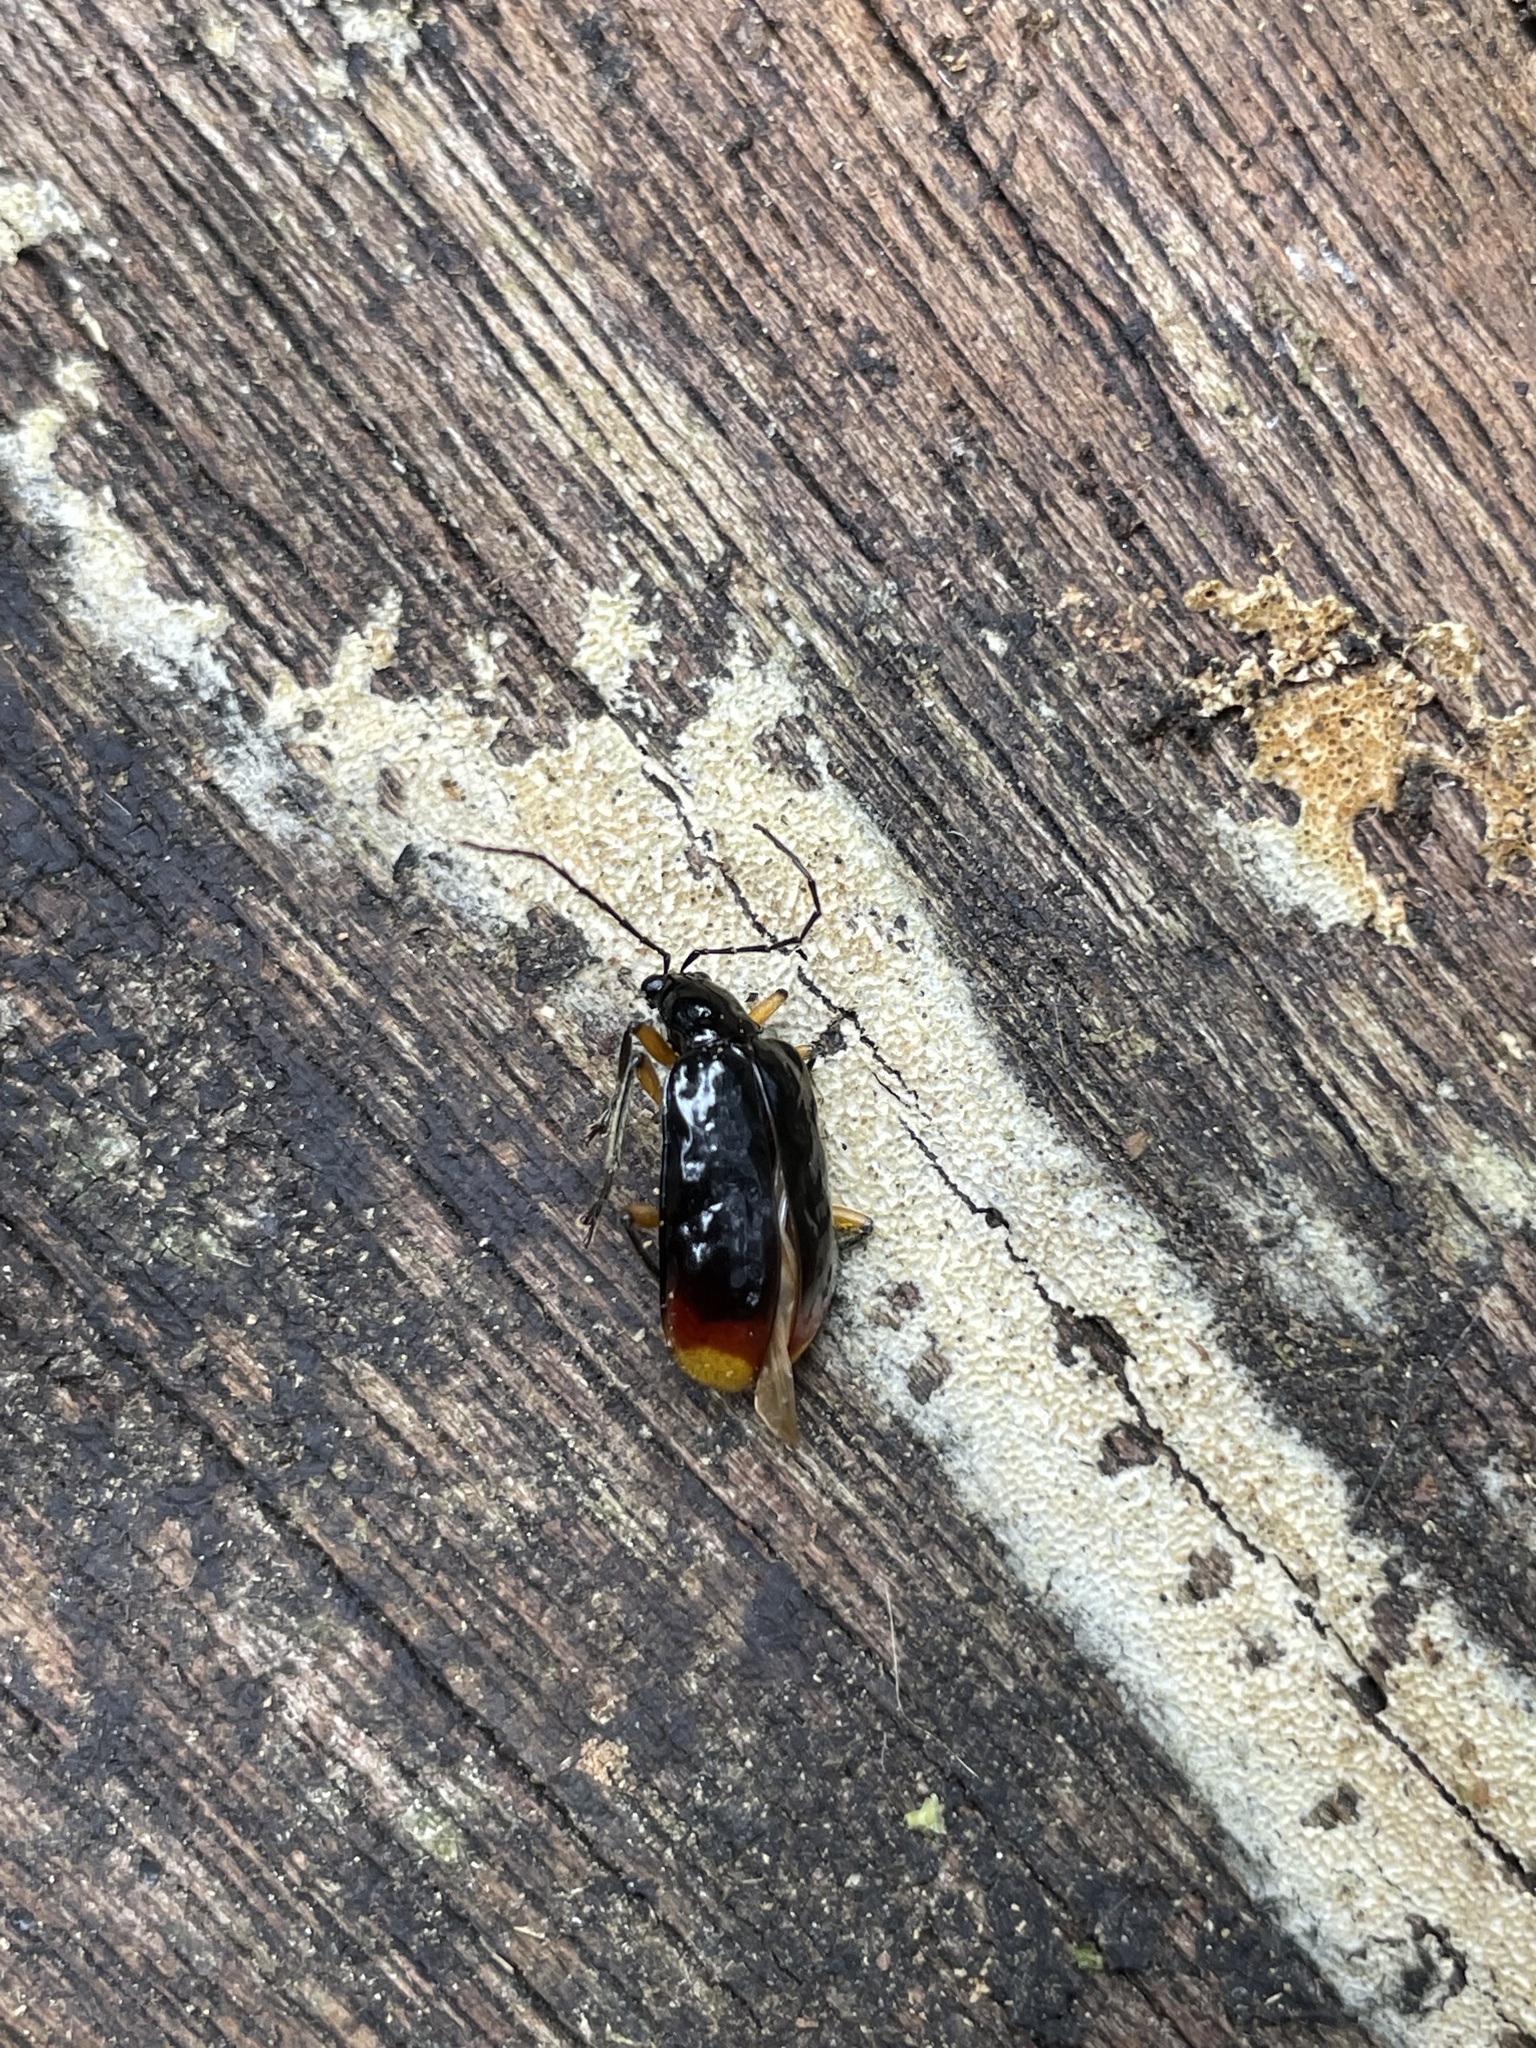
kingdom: Animalia
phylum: Arthropoda
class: Insecta
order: Coleoptera
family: Chrysomelidae
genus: Paratriarius
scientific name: Paratriarius
